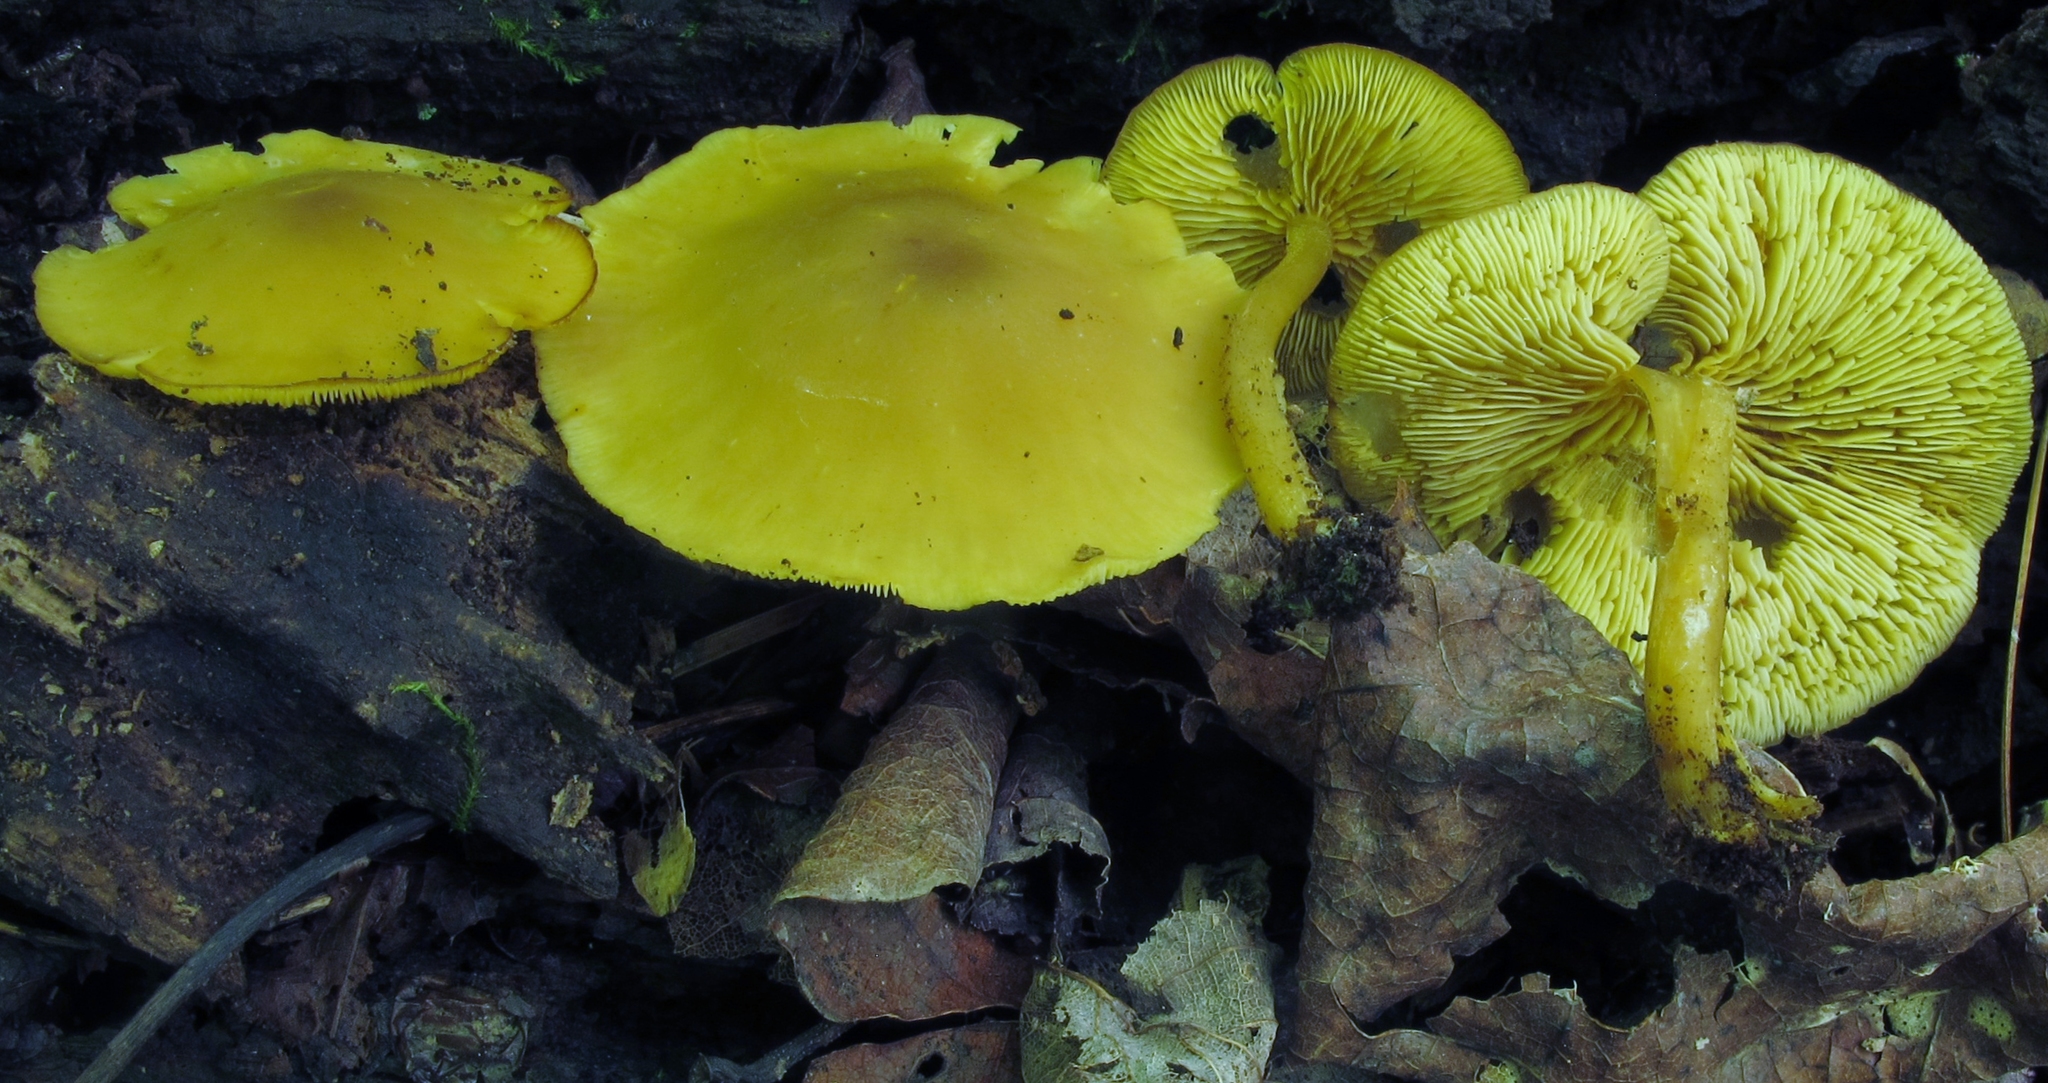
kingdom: Fungi
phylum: Basidiomycota
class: Agaricomycetes
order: Agaricales
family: Callistosporiaceae
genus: Callistosporium
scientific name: Callistosporium luteo-olivaceum
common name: Olive lute
